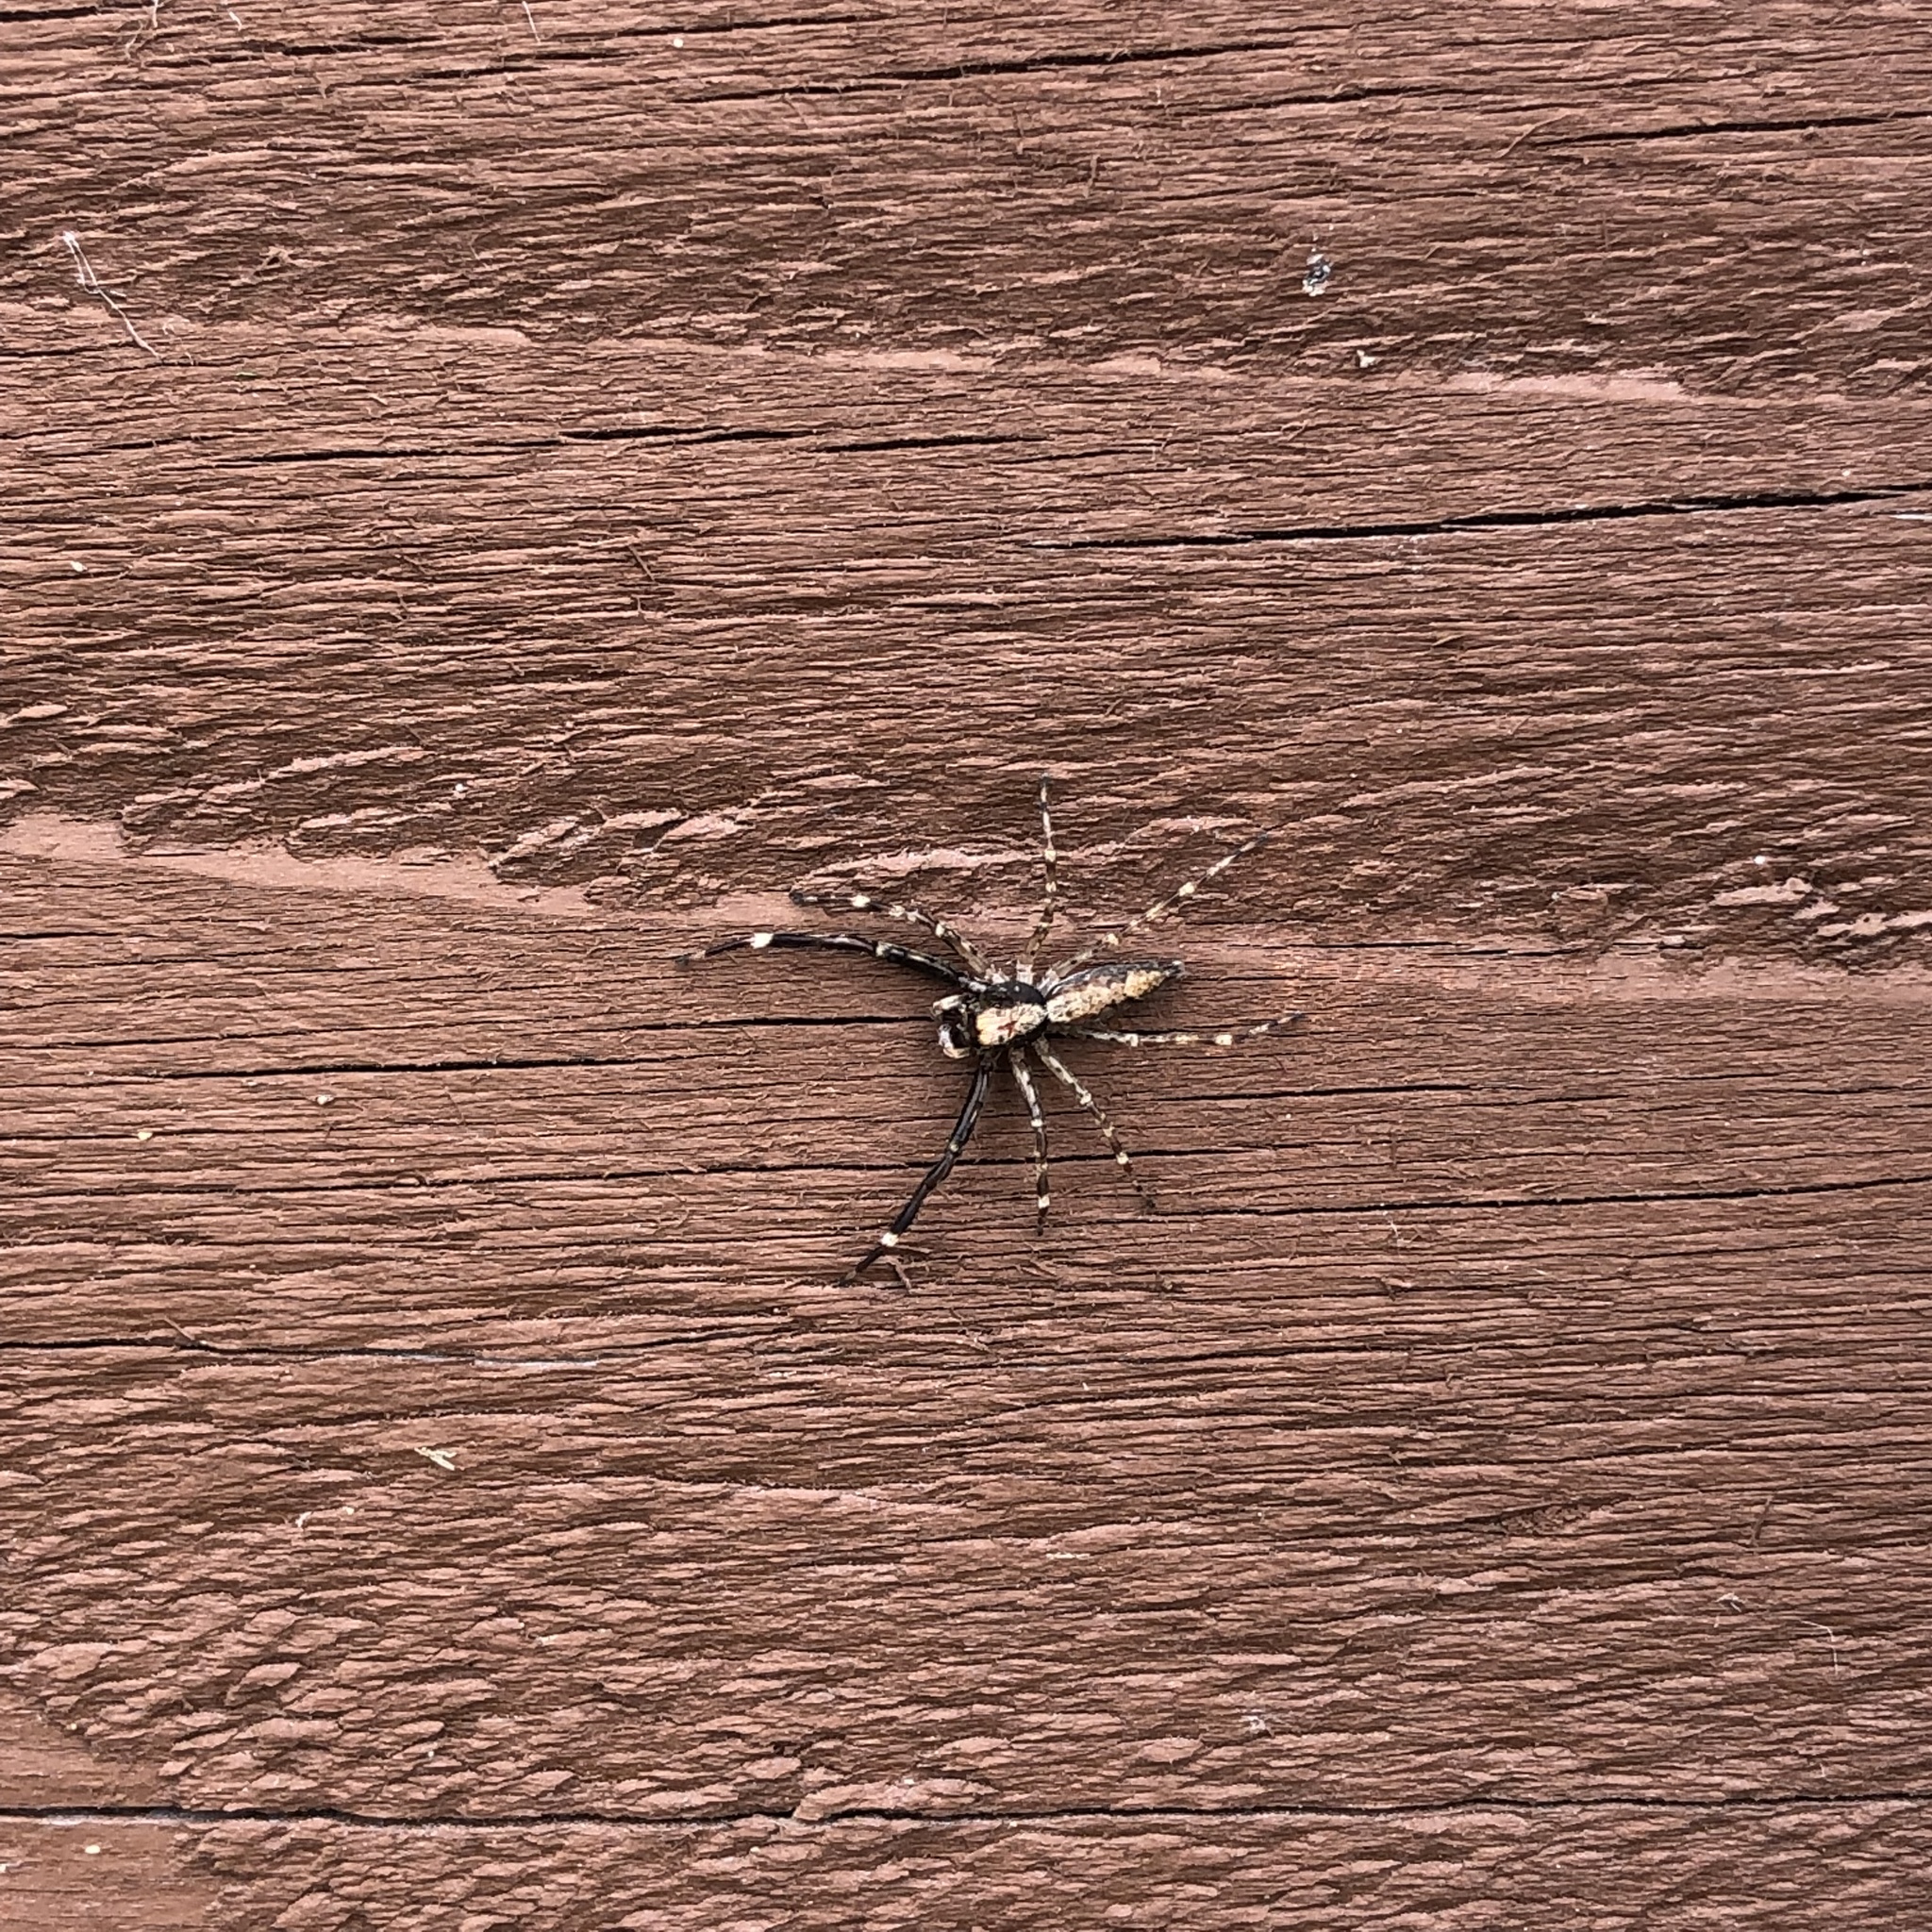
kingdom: Animalia
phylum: Arthropoda
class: Arachnida
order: Araneae
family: Salticidae
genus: Helpis
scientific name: Helpis minitabunda
